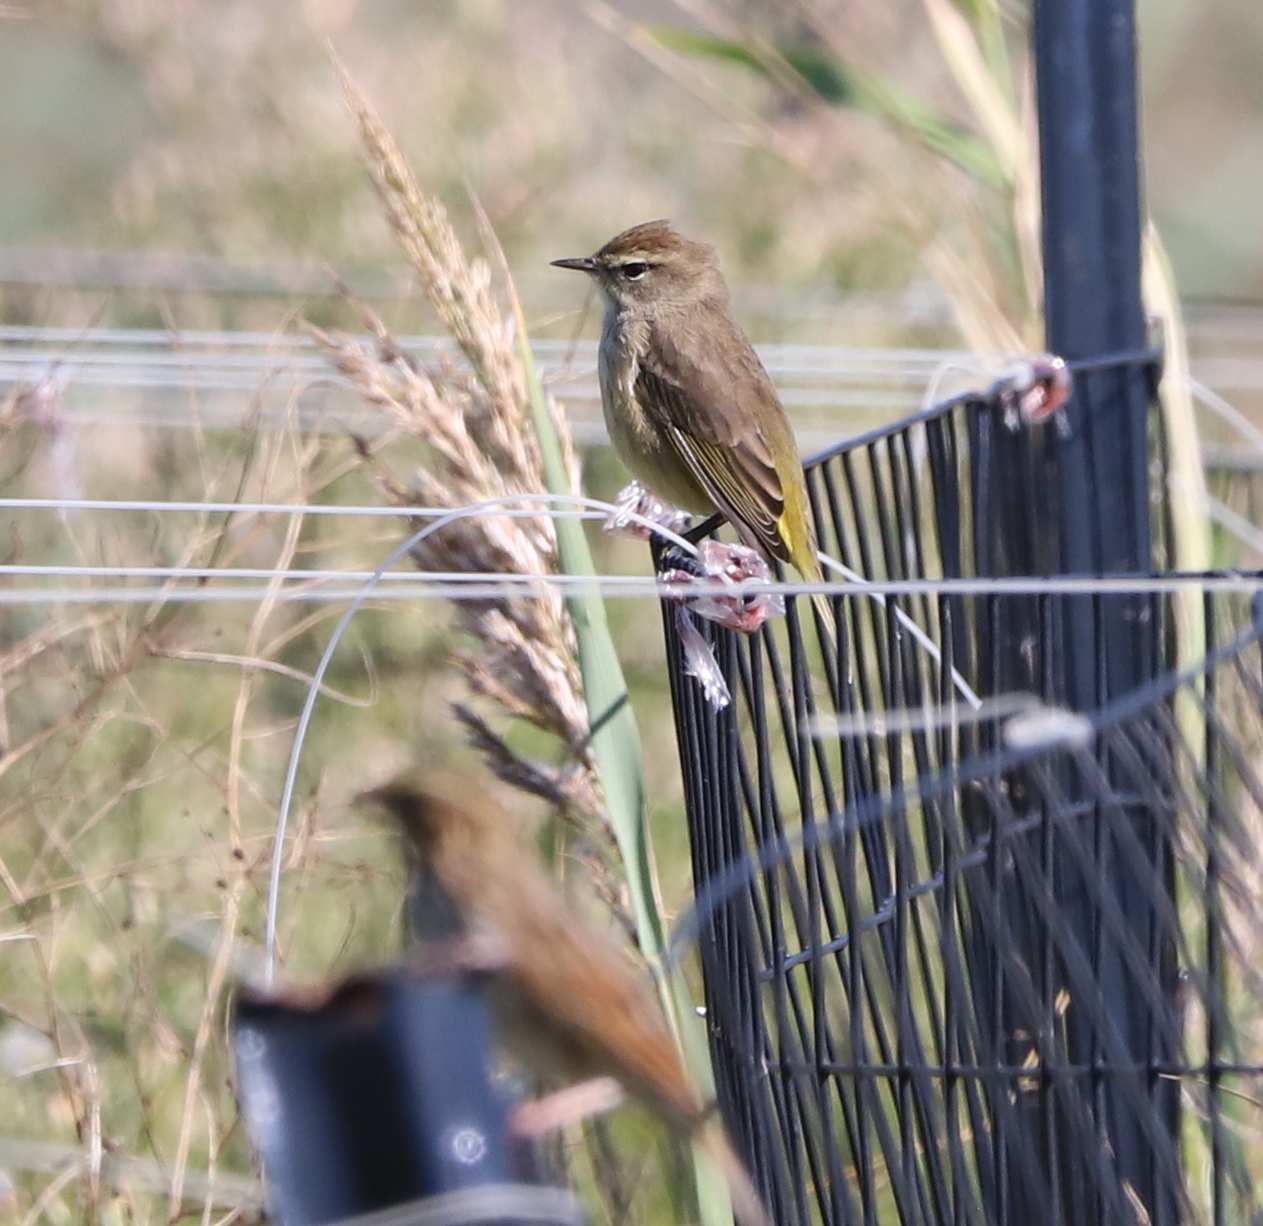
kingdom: Animalia
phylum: Chordata
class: Aves
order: Passeriformes
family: Parulidae
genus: Setophaga
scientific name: Setophaga palmarum
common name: Palm warbler
